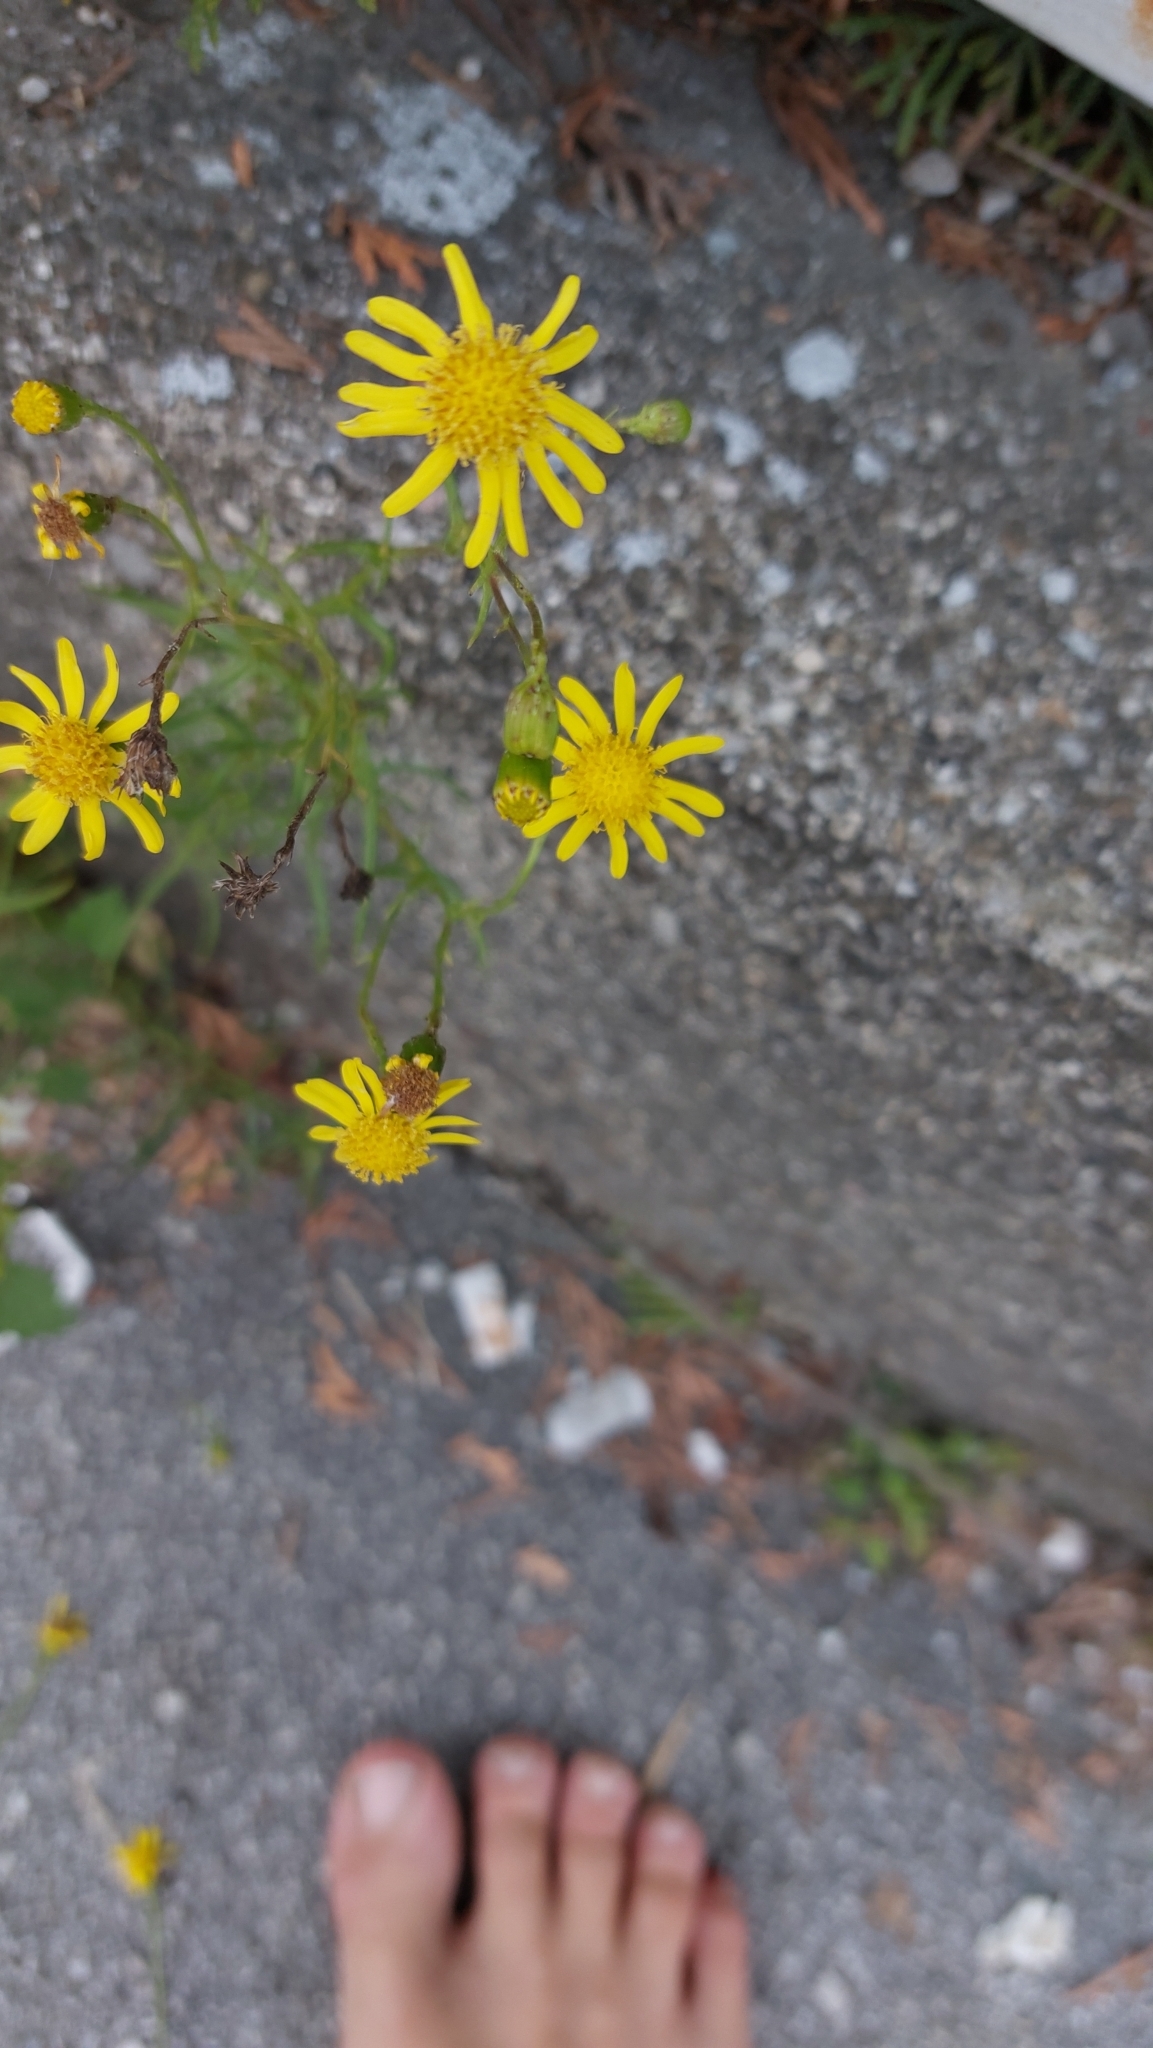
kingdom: Plantae
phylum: Tracheophyta
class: Magnoliopsida
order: Asterales
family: Asteraceae
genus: Senecio
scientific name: Senecio inaequidens
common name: Narrow-leaved ragwort
